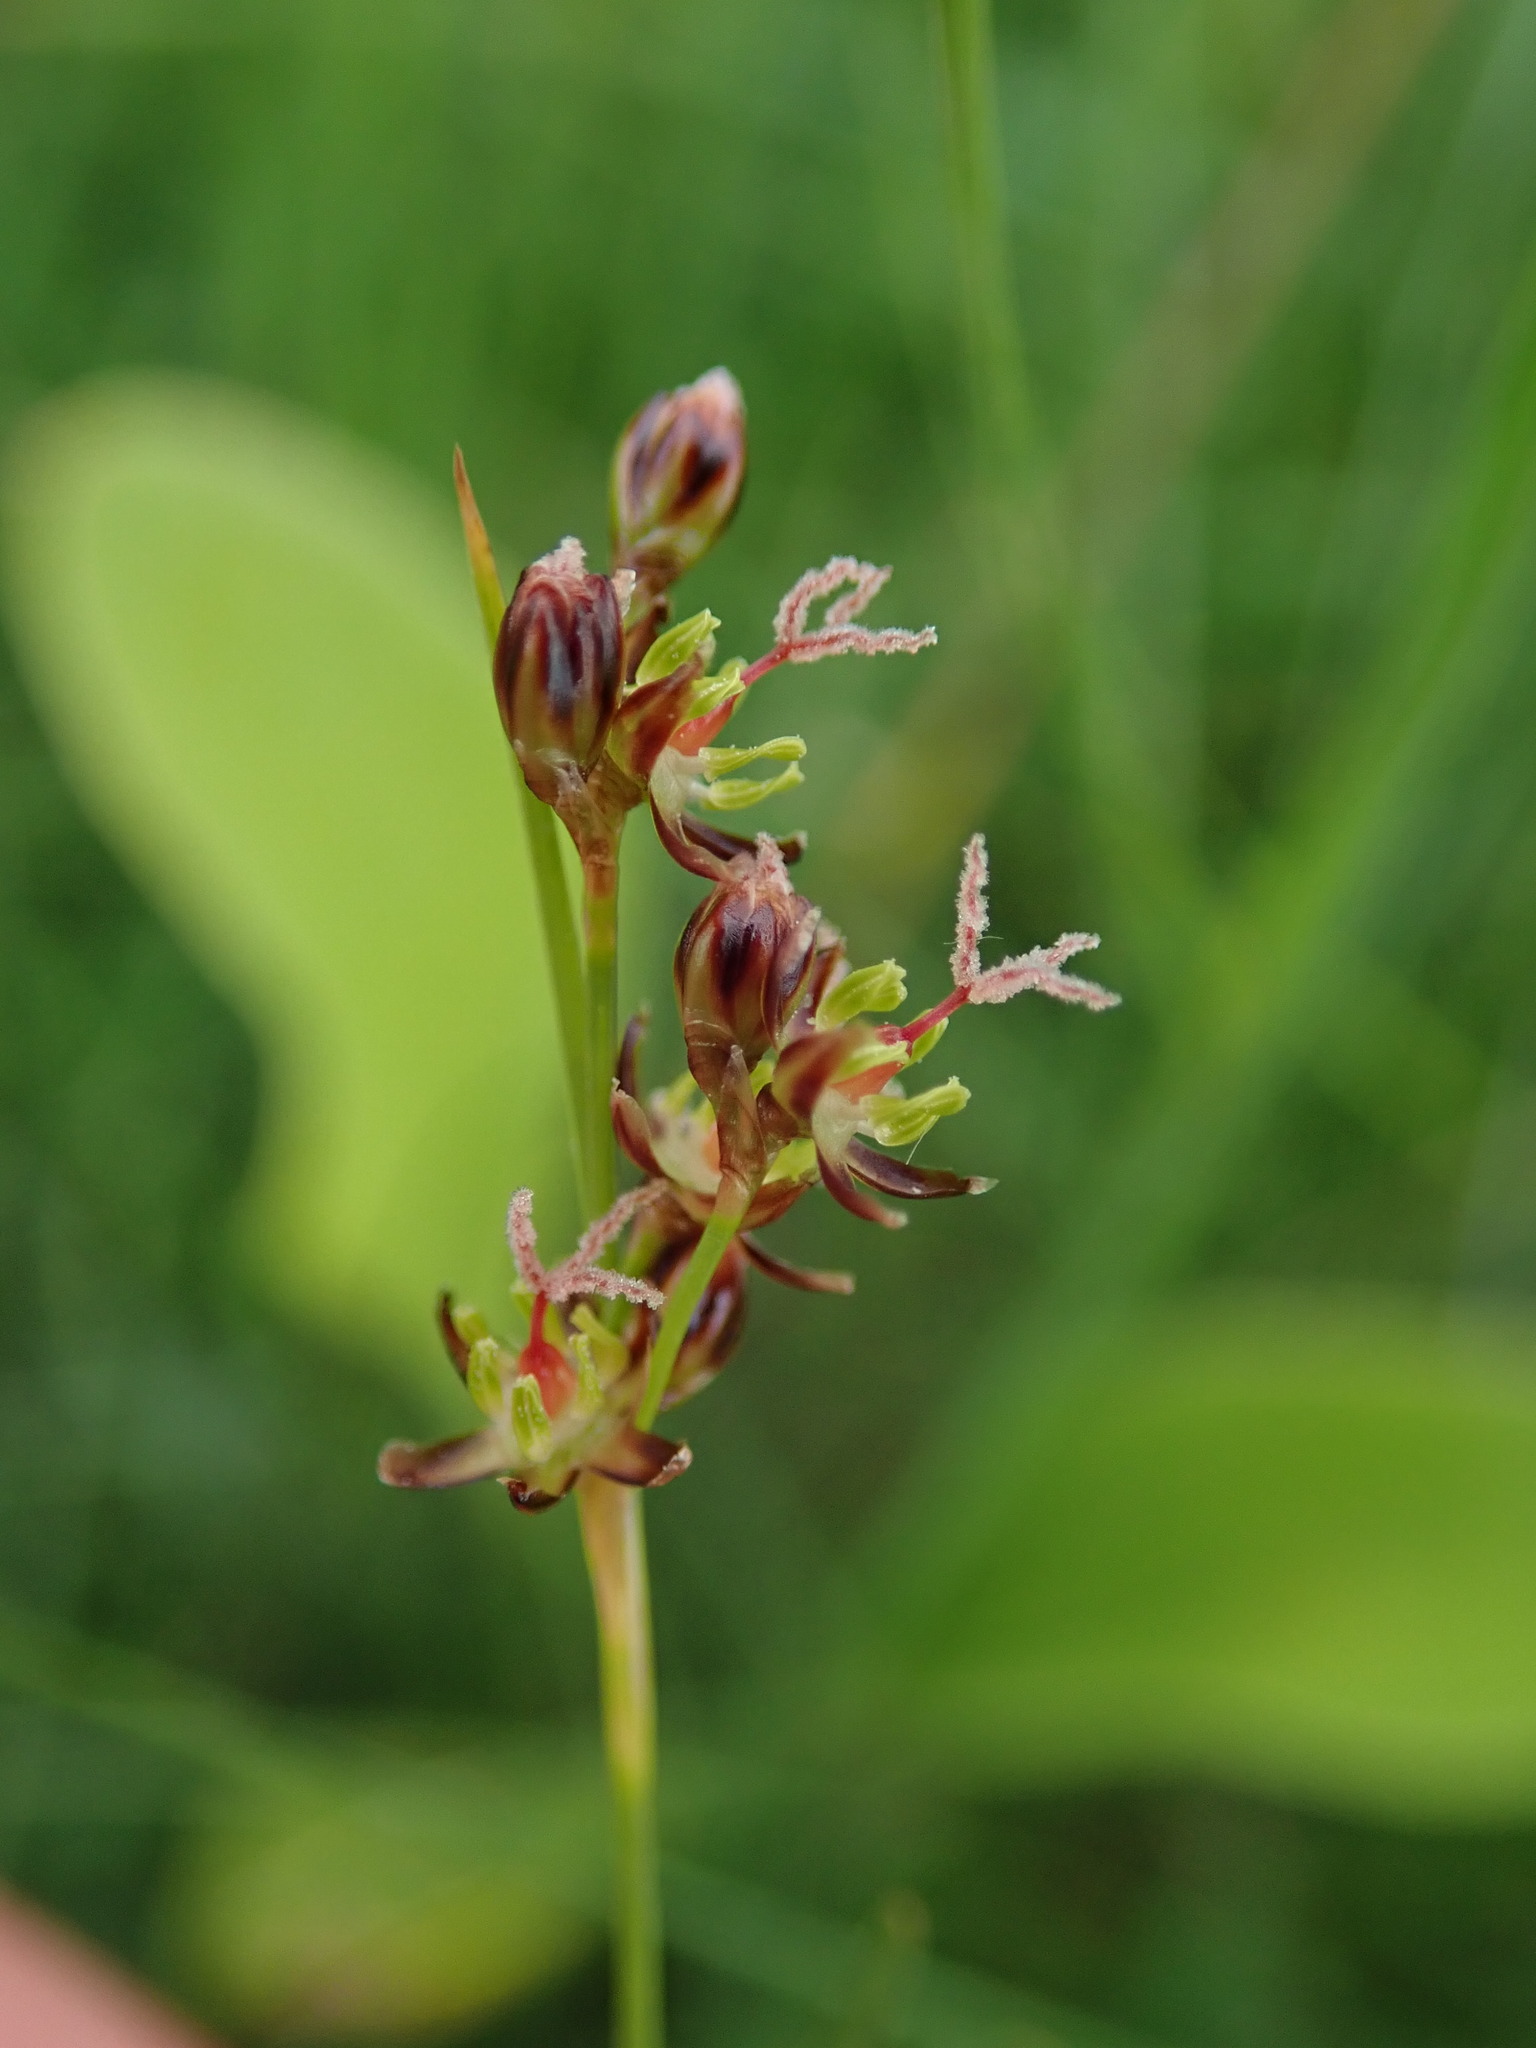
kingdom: Plantae
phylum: Tracheophyta
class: Liliopsida
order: Poales
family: Juncaceae
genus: Juncus
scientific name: Juncus gerardi
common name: Saltmarsh rush
